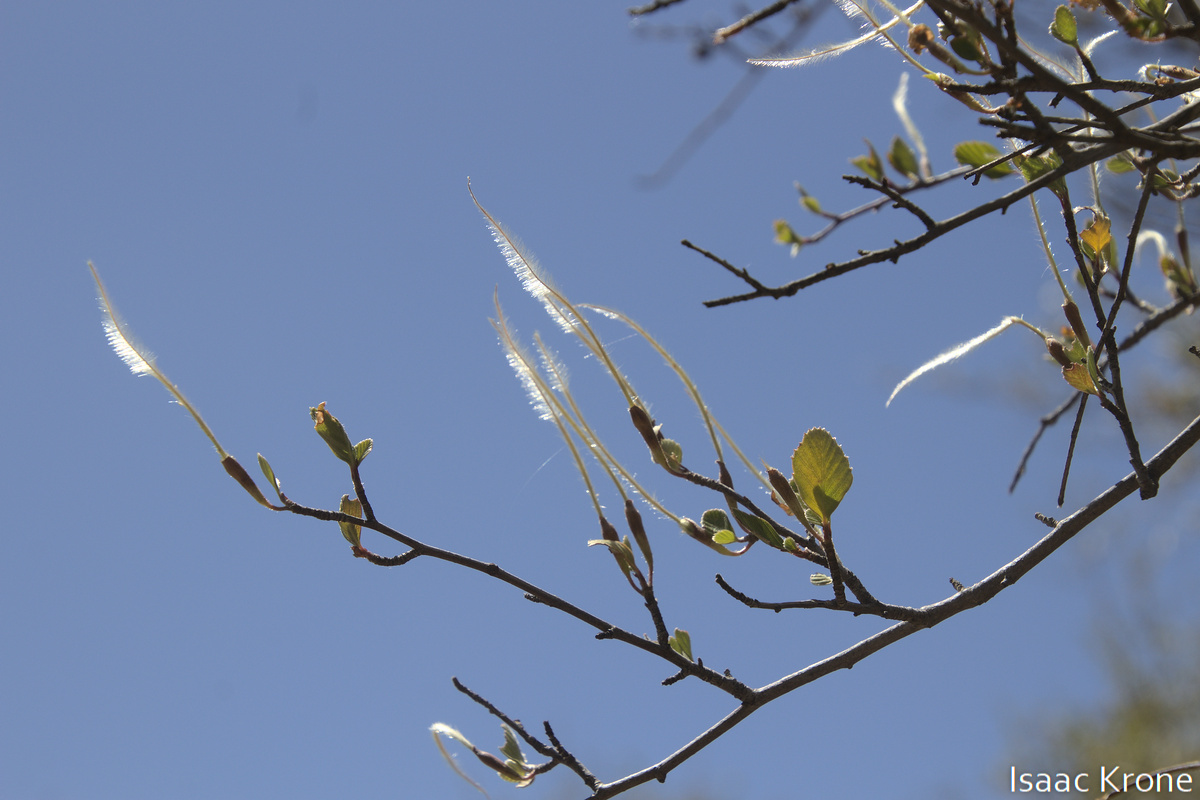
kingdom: Plantae
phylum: Tracheophyta
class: Magnoliopsida
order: Rosales
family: Rosaceae
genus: Cercocarpus
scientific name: Cercocarpus betuloides
